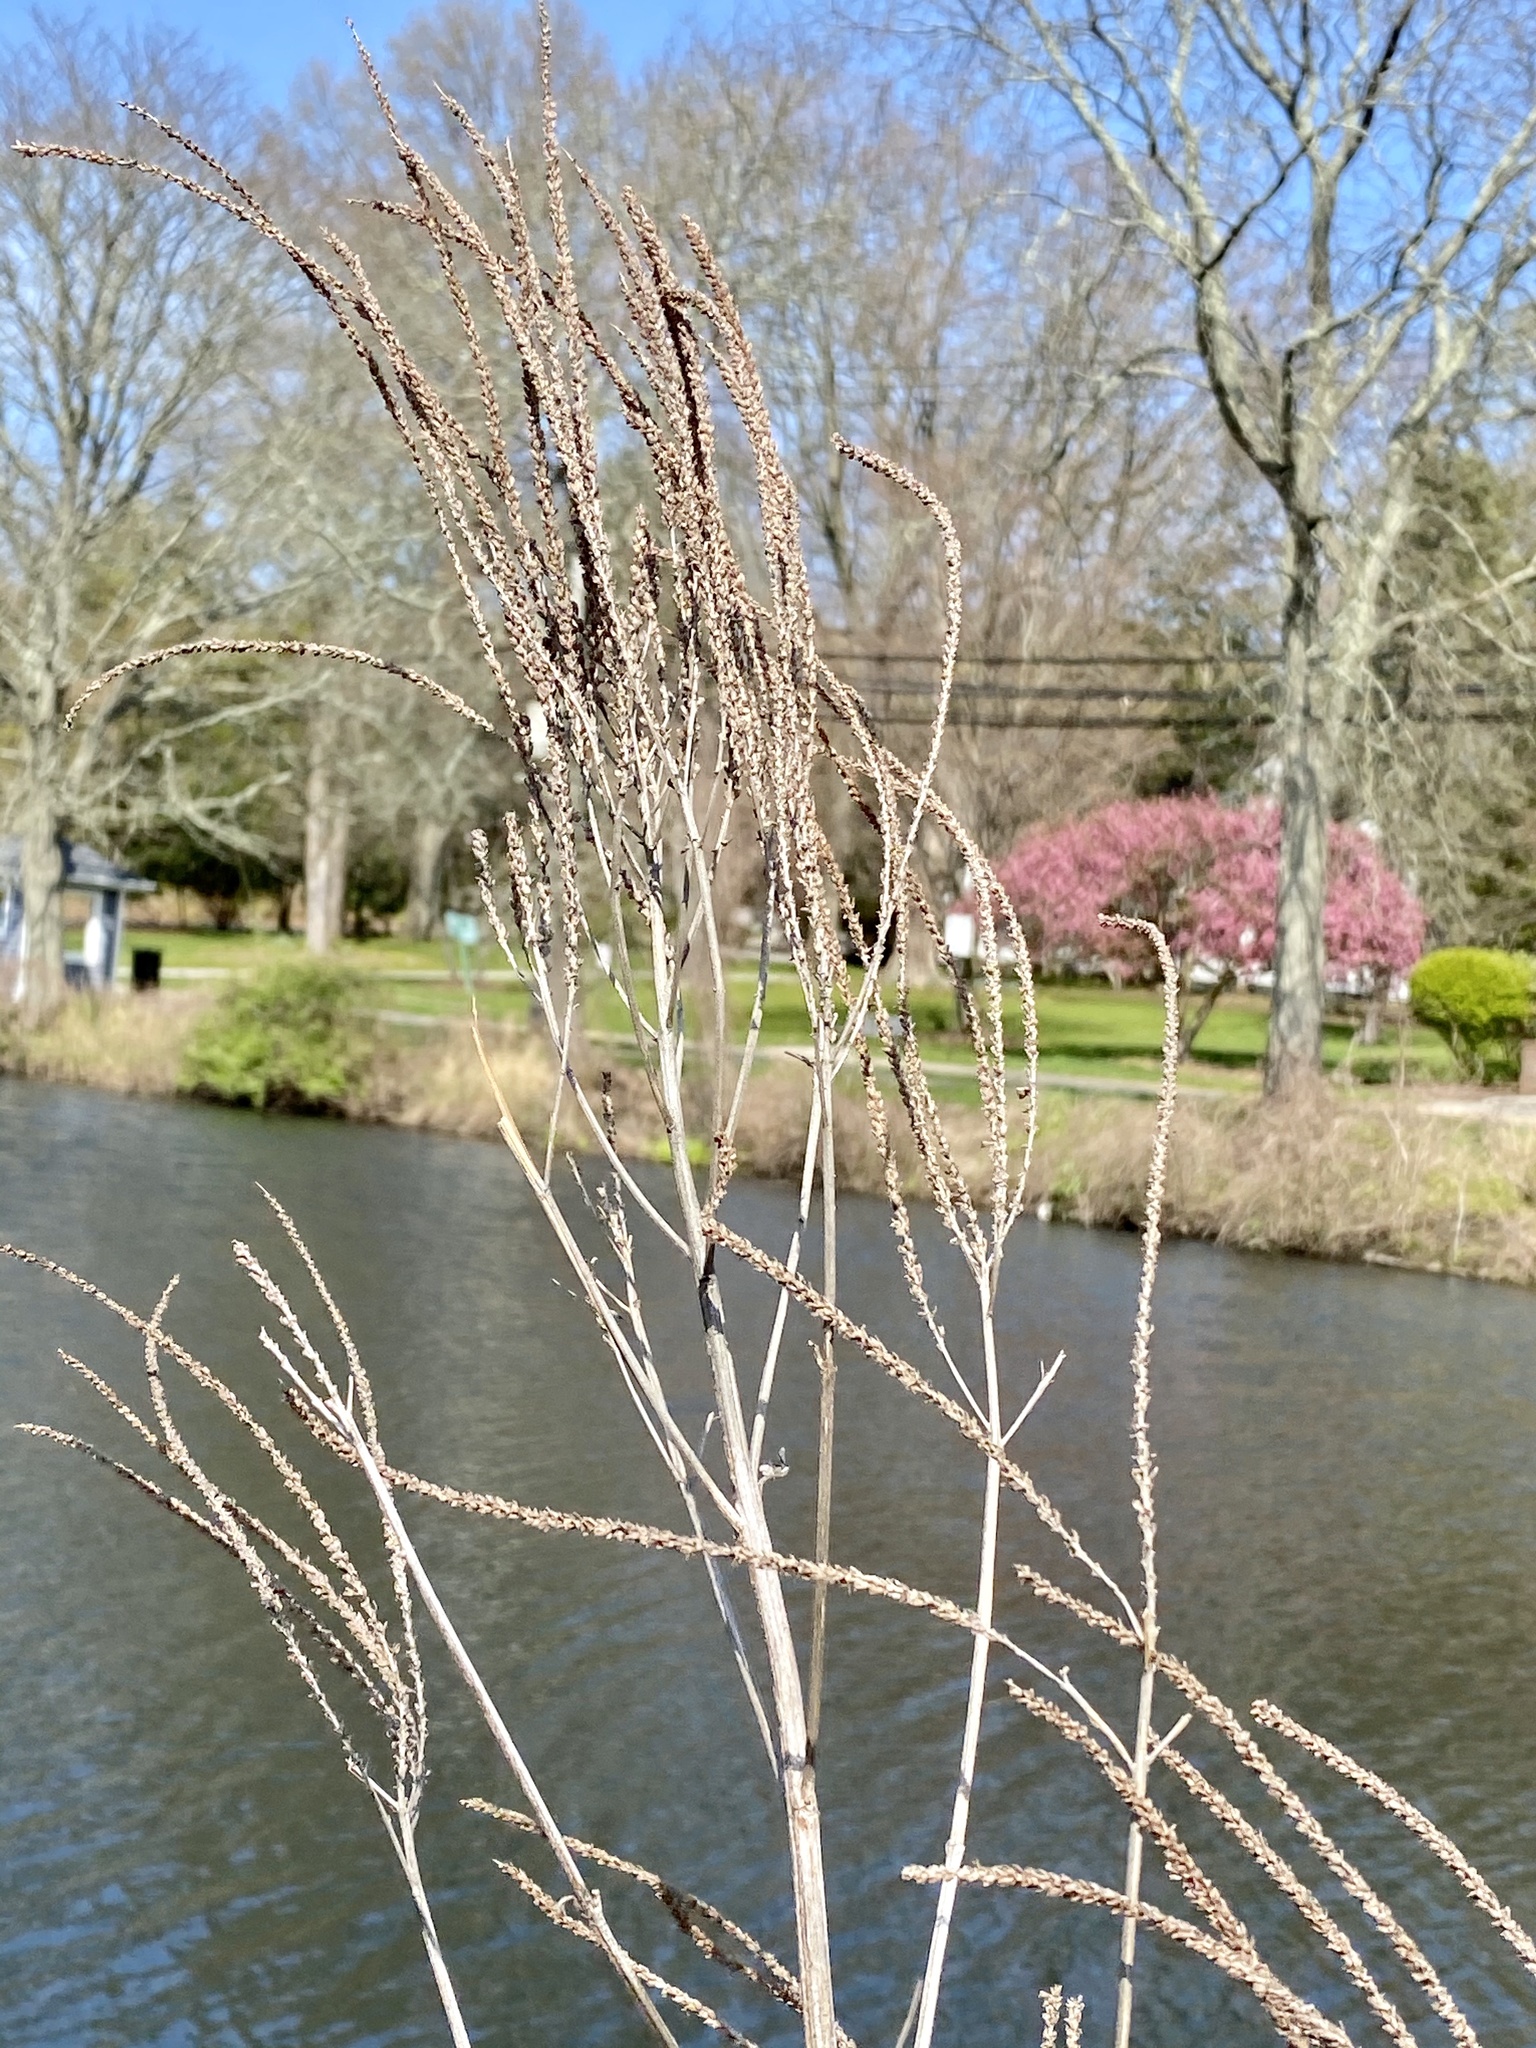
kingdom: Plantae
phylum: Tracheophyta
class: Magnoliopsida
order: Lamiales
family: Verbenaceae
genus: Verbena
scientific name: Verbena hastata
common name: American blue vervain
